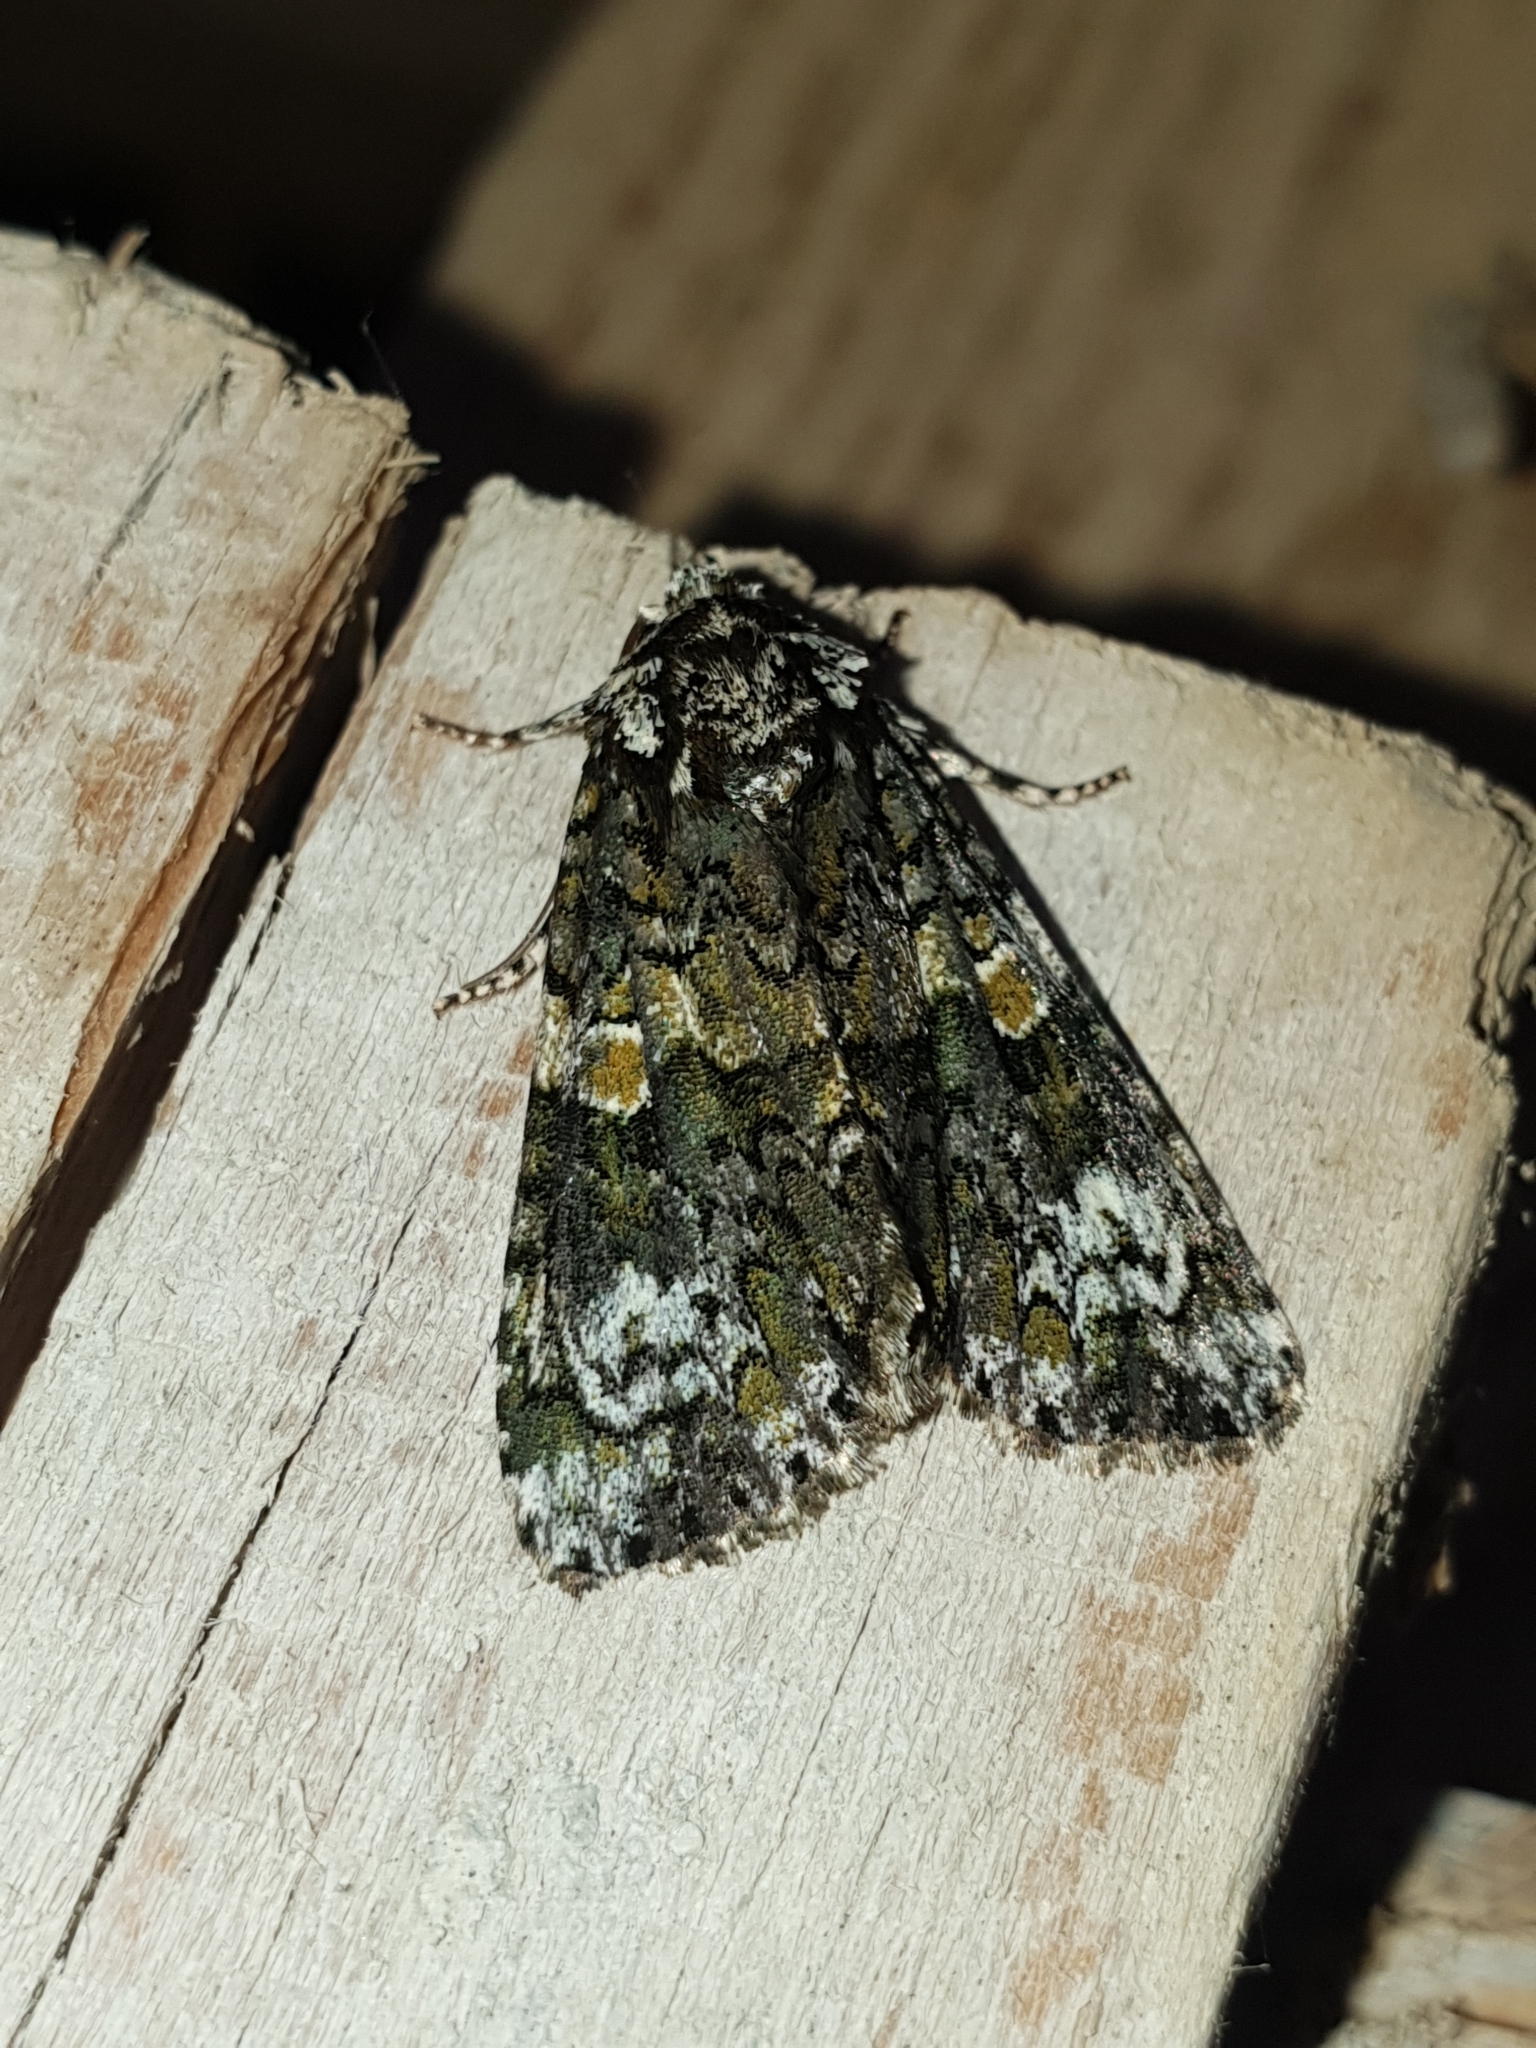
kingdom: Animalia
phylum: Arthropoda
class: Insecta
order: Lepidoptera
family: Noctuidae
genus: Craniophora
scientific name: Craniophora ligustri
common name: Coronet
